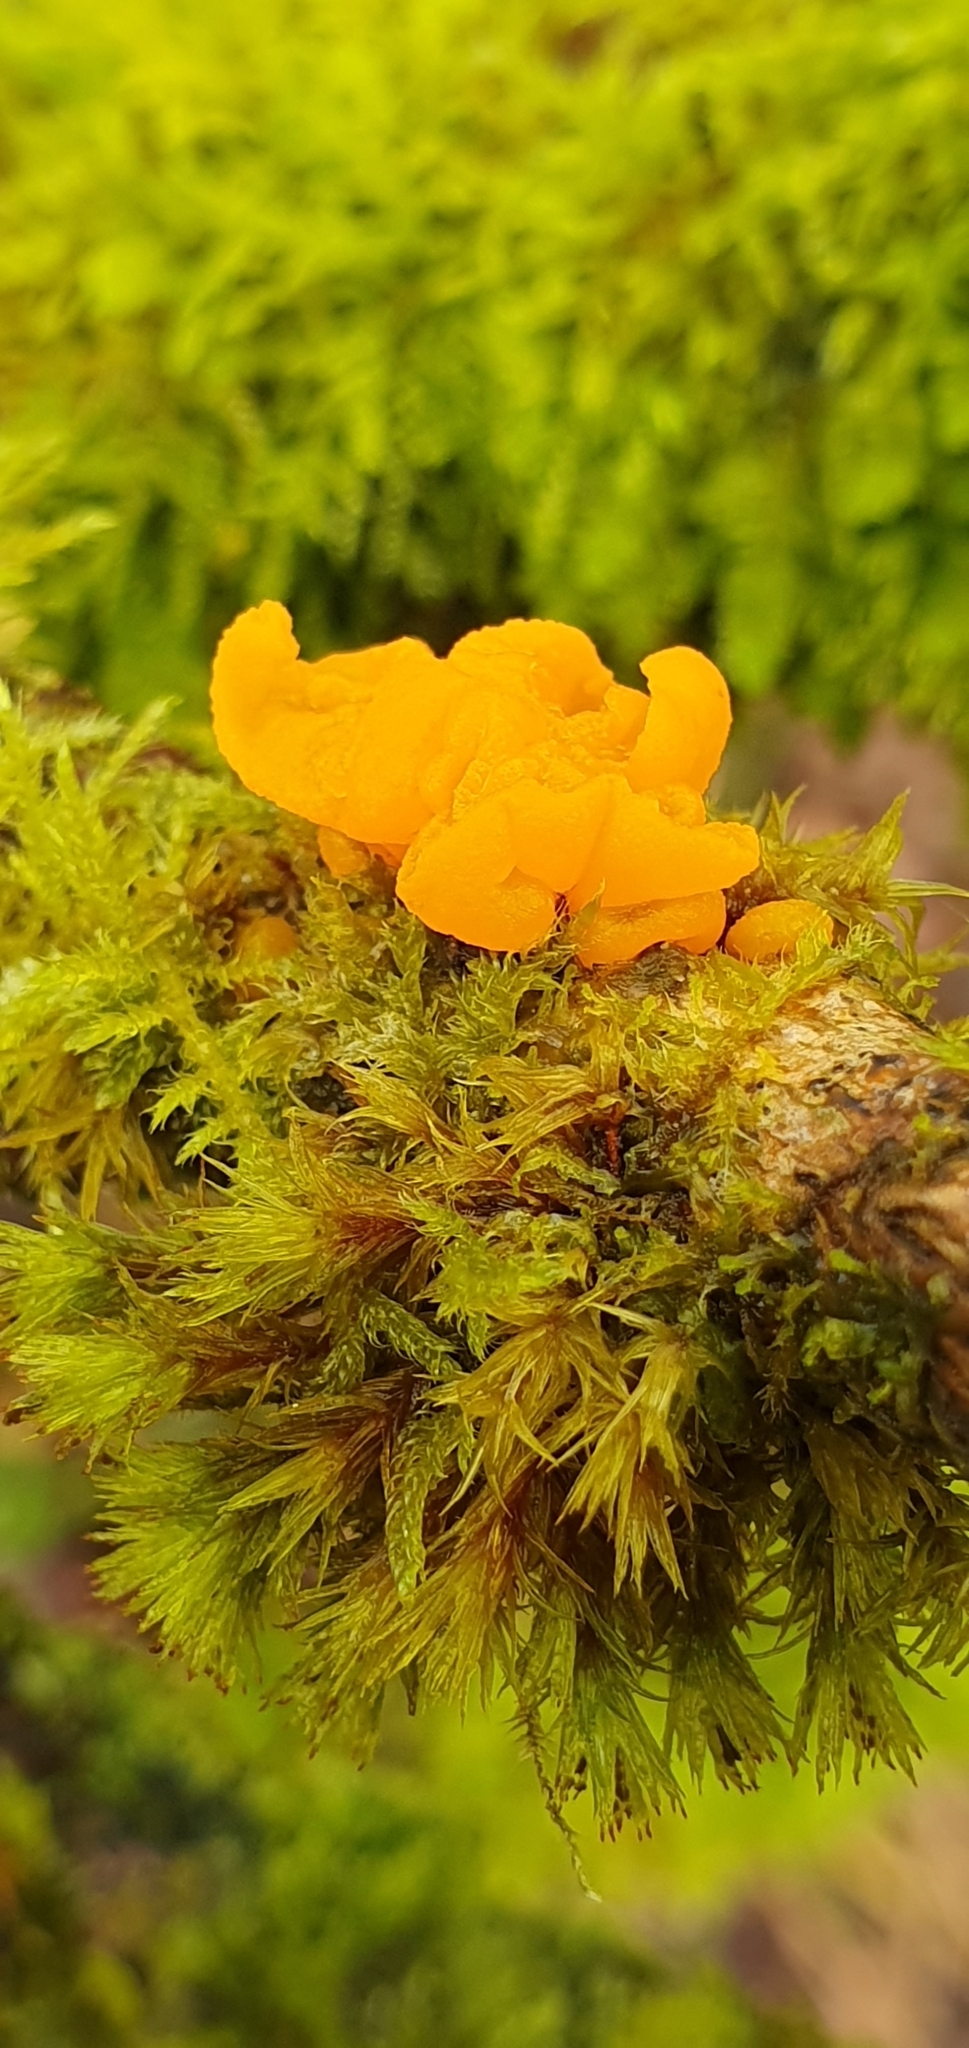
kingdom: Fungi
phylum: Basidiomycota
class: Tremellomycetes
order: Tremellales
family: Tremellaceae
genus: Tremella
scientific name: Tremella mesenterica
